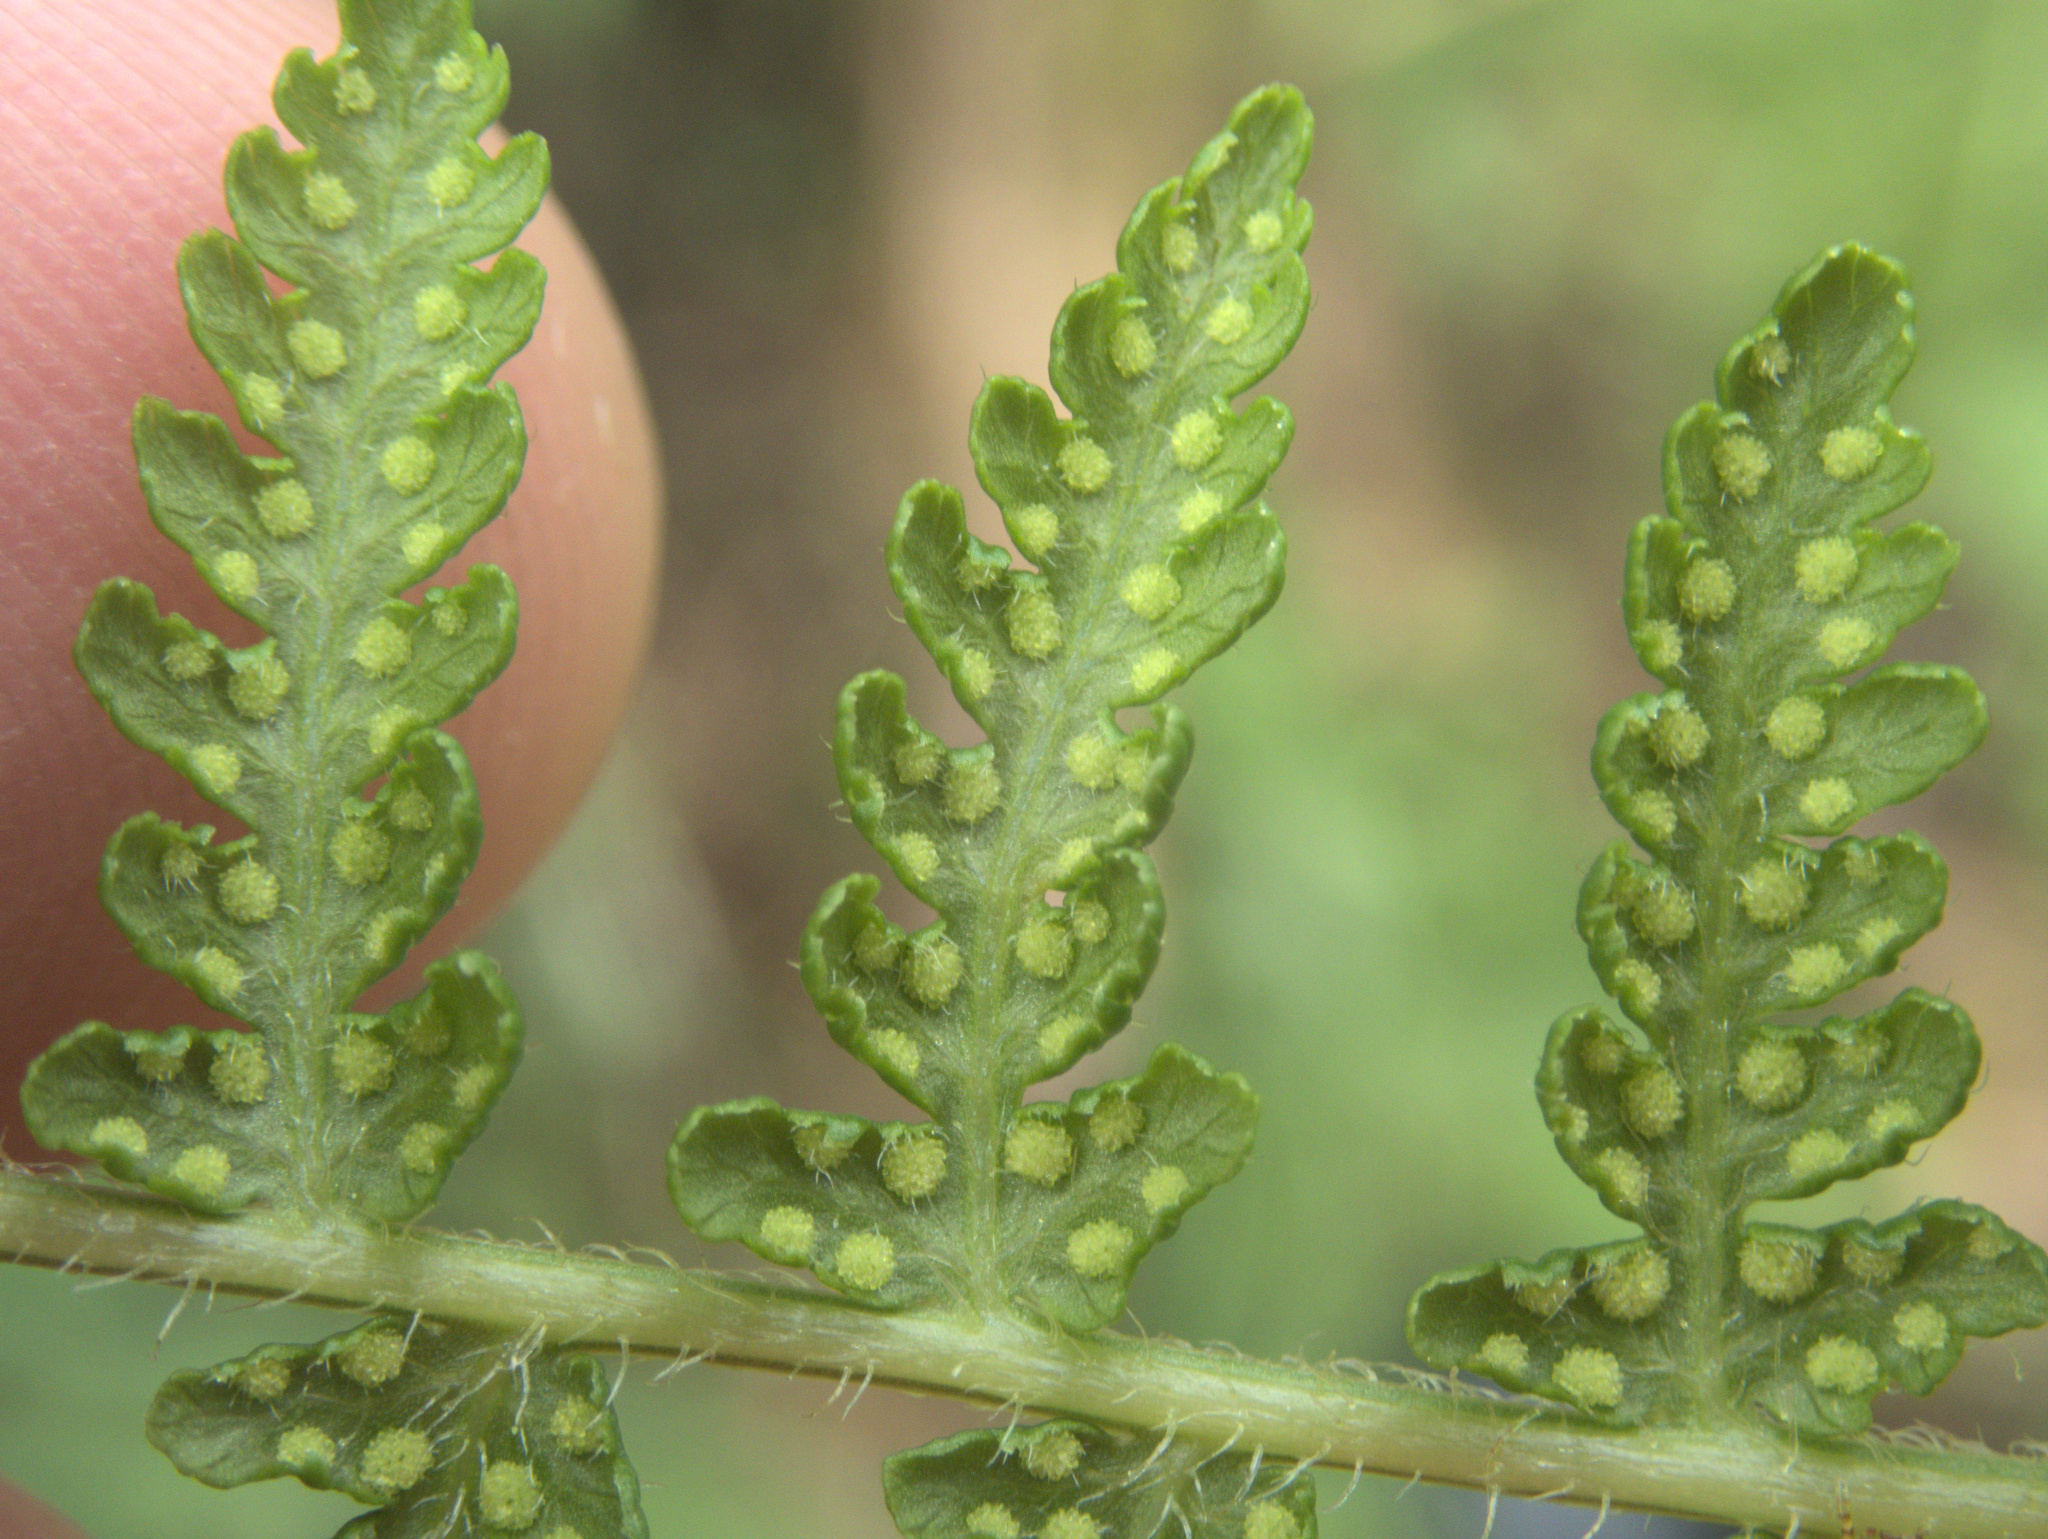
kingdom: Plantae
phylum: Tracheophyta
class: Polypodiopsida
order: Polypodiales
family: Dennstaedtiaceae
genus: Hypolepis
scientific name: Hypolepis ambigua
